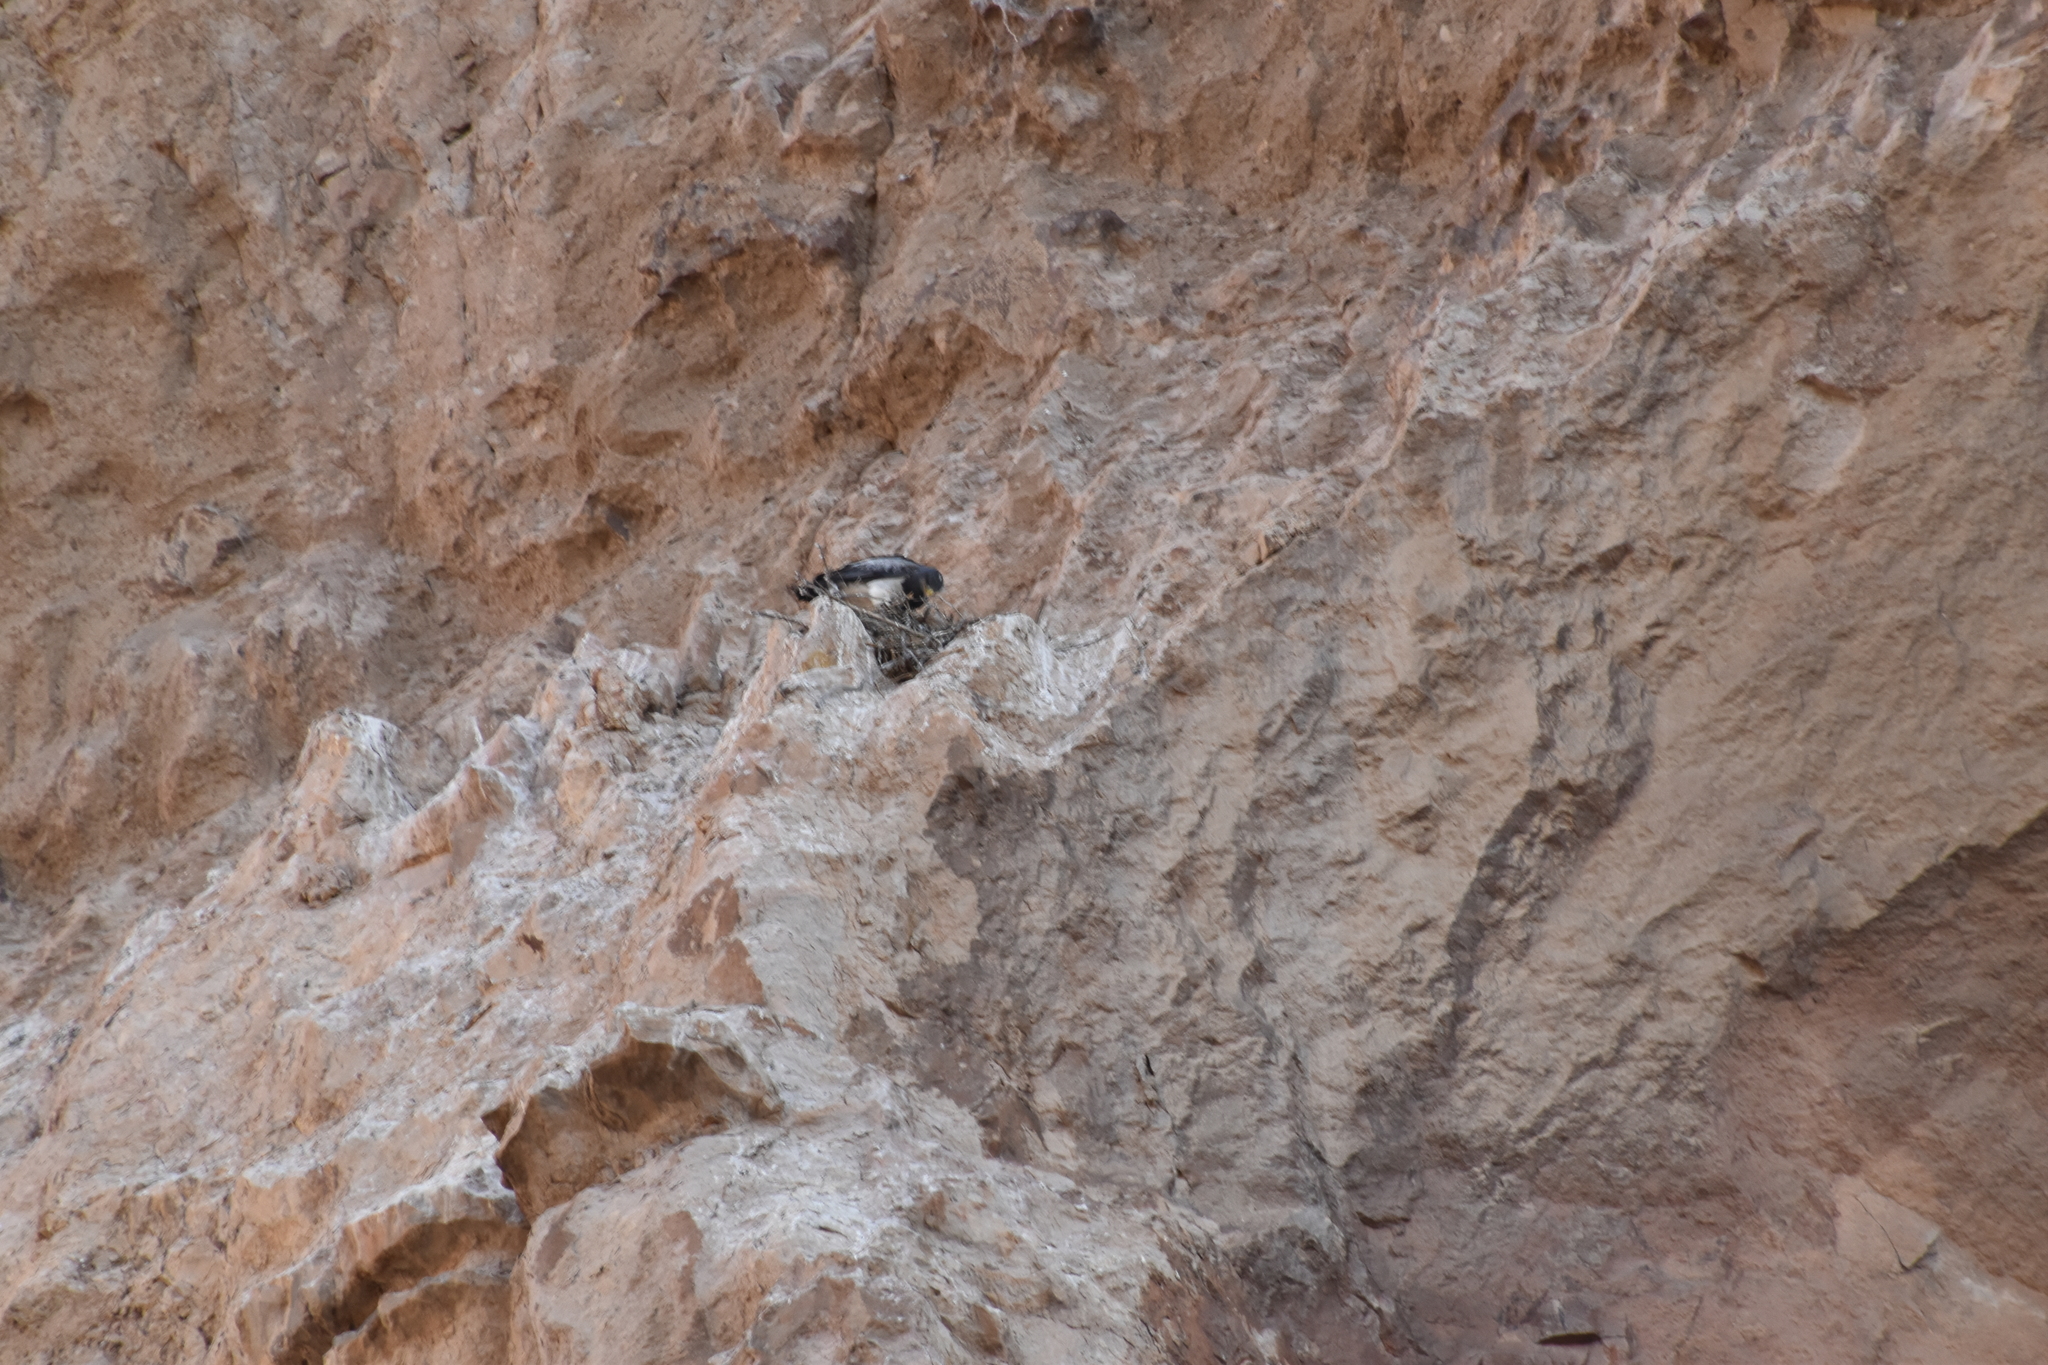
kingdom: Animalia
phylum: Chordata
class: Aves
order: Accipitriformes
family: Accipitridae
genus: Geranoaetus
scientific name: Geranoaetus melanoleucus
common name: Black-chested buzzard-eagle
